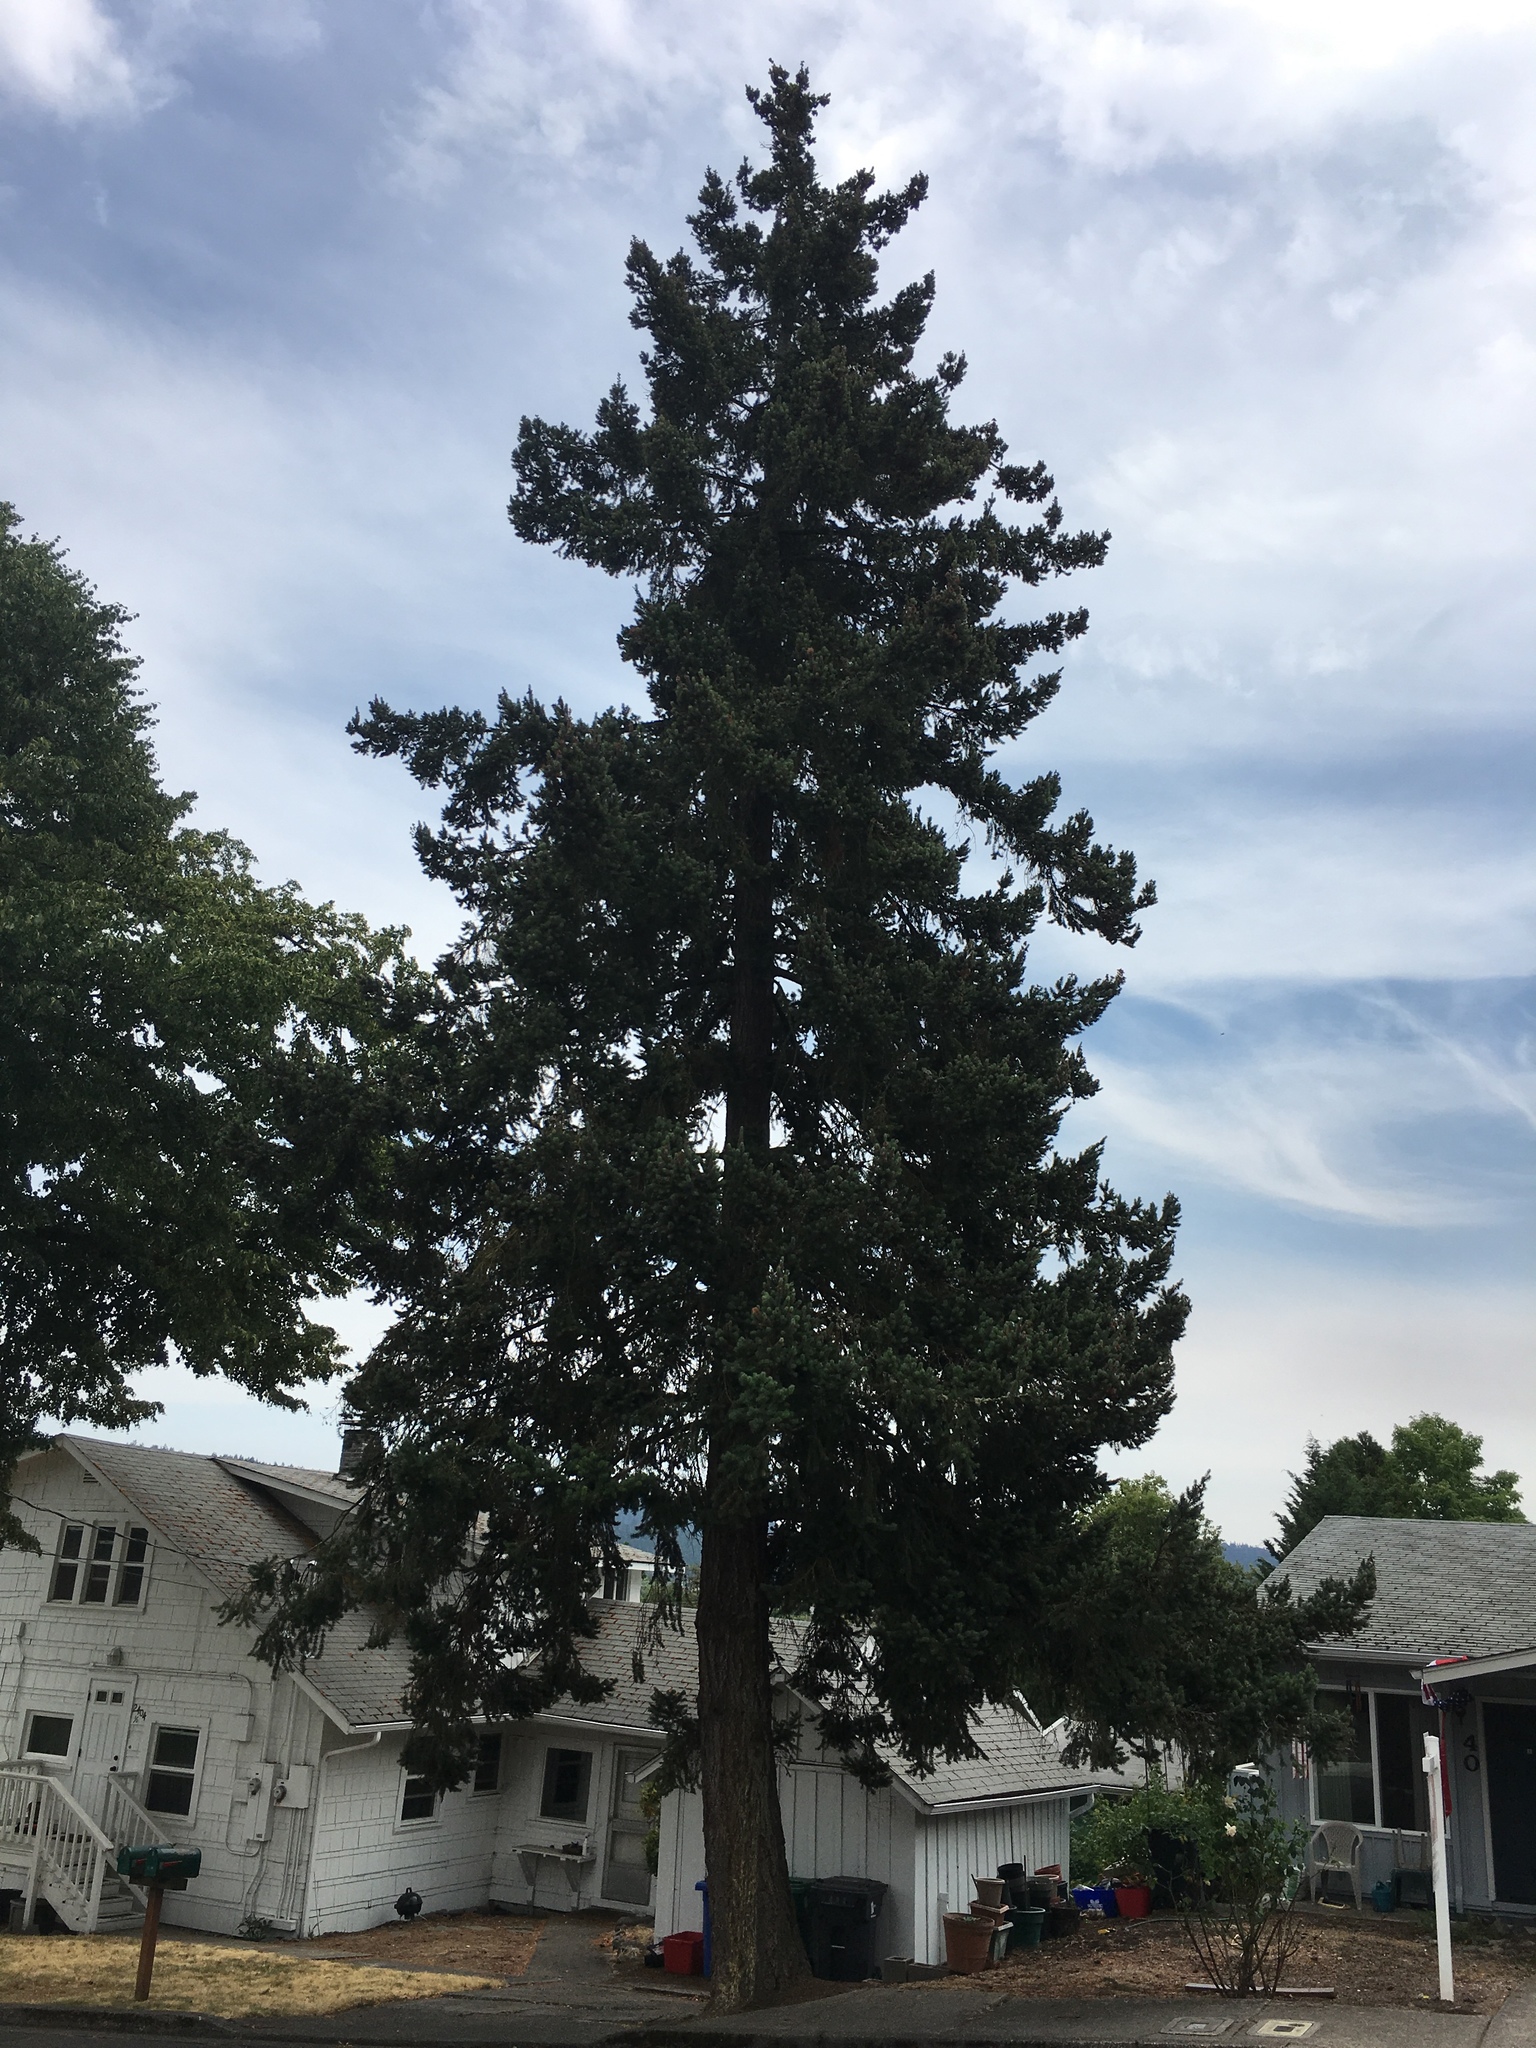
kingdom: Plantae
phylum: Tracheophyta
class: Pinopsida
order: Pinales
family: Pinaceae
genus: Pseudotsuga
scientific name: Pseudotsuga menziesii
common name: Douglas fir
